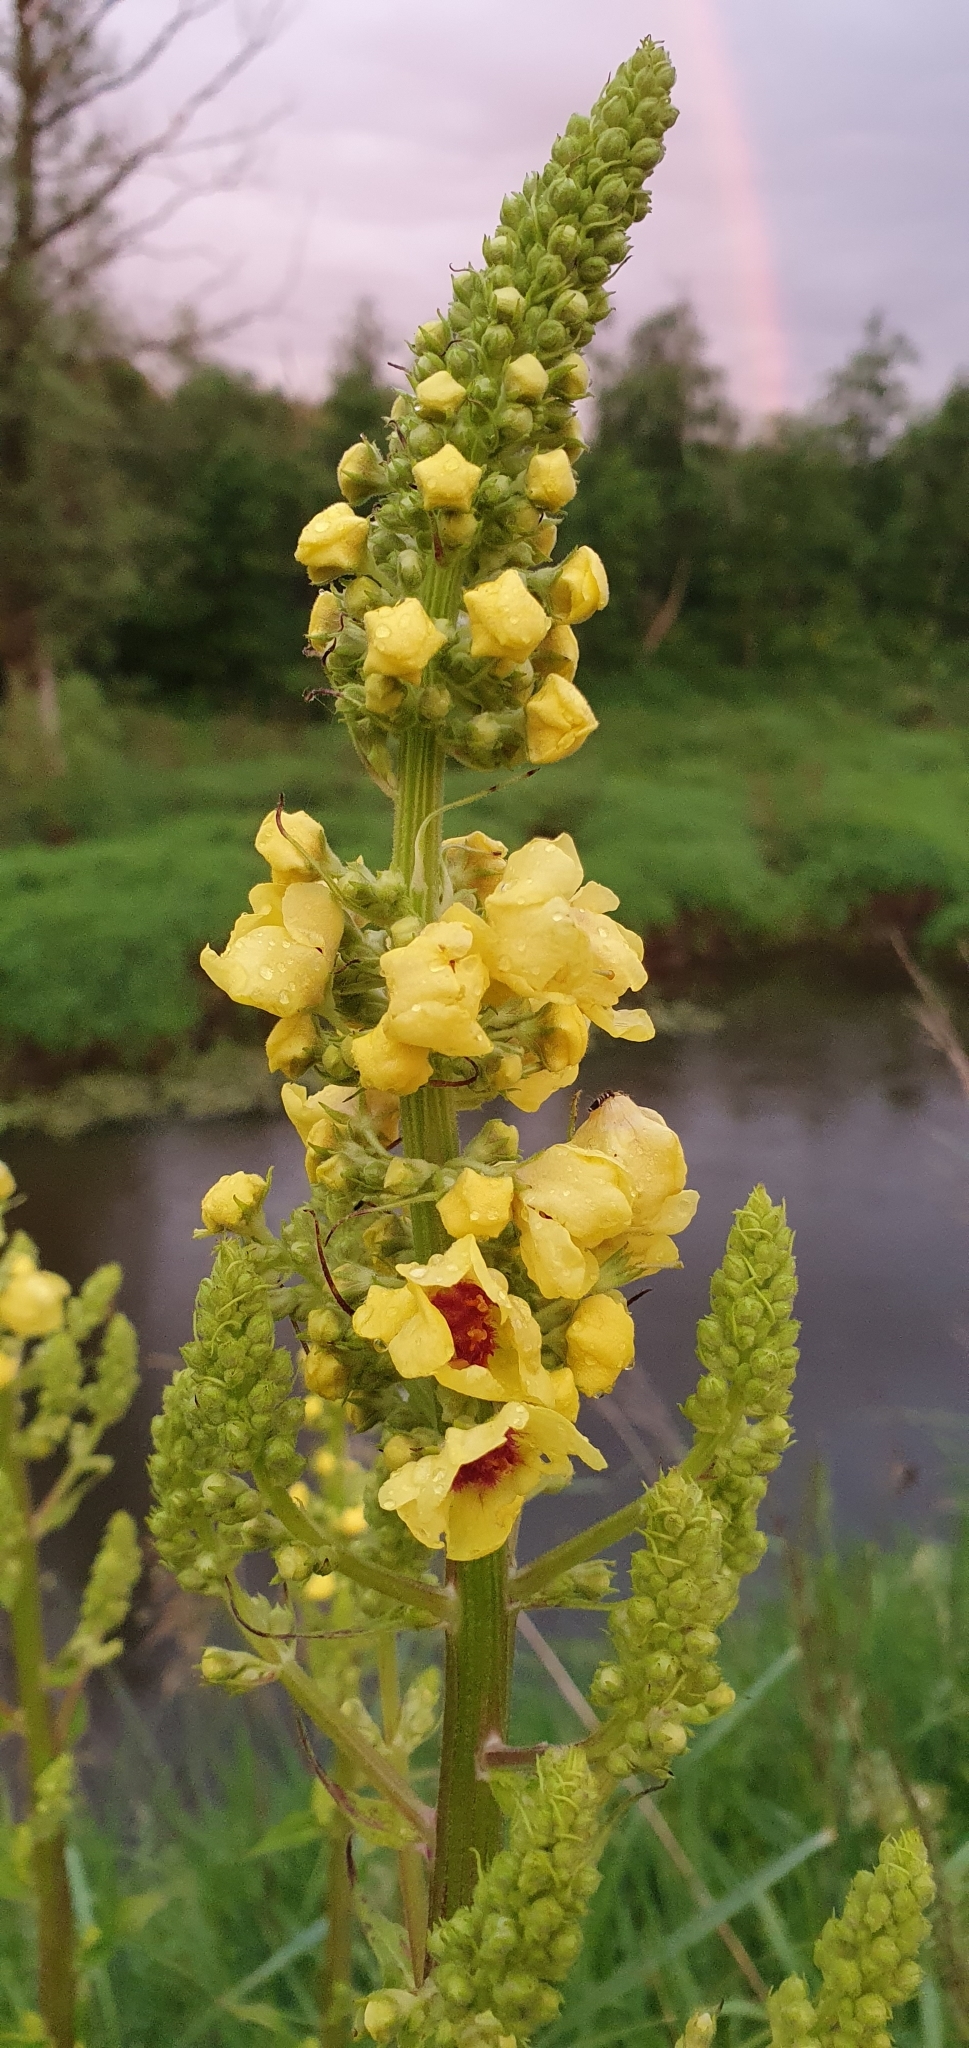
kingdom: Plantae
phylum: Tracheophyta
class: Magnoliopsida
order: Lamiales
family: Scrophulariaceae
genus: Verbascum
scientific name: Verbascum nigrum
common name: Dark mullein
